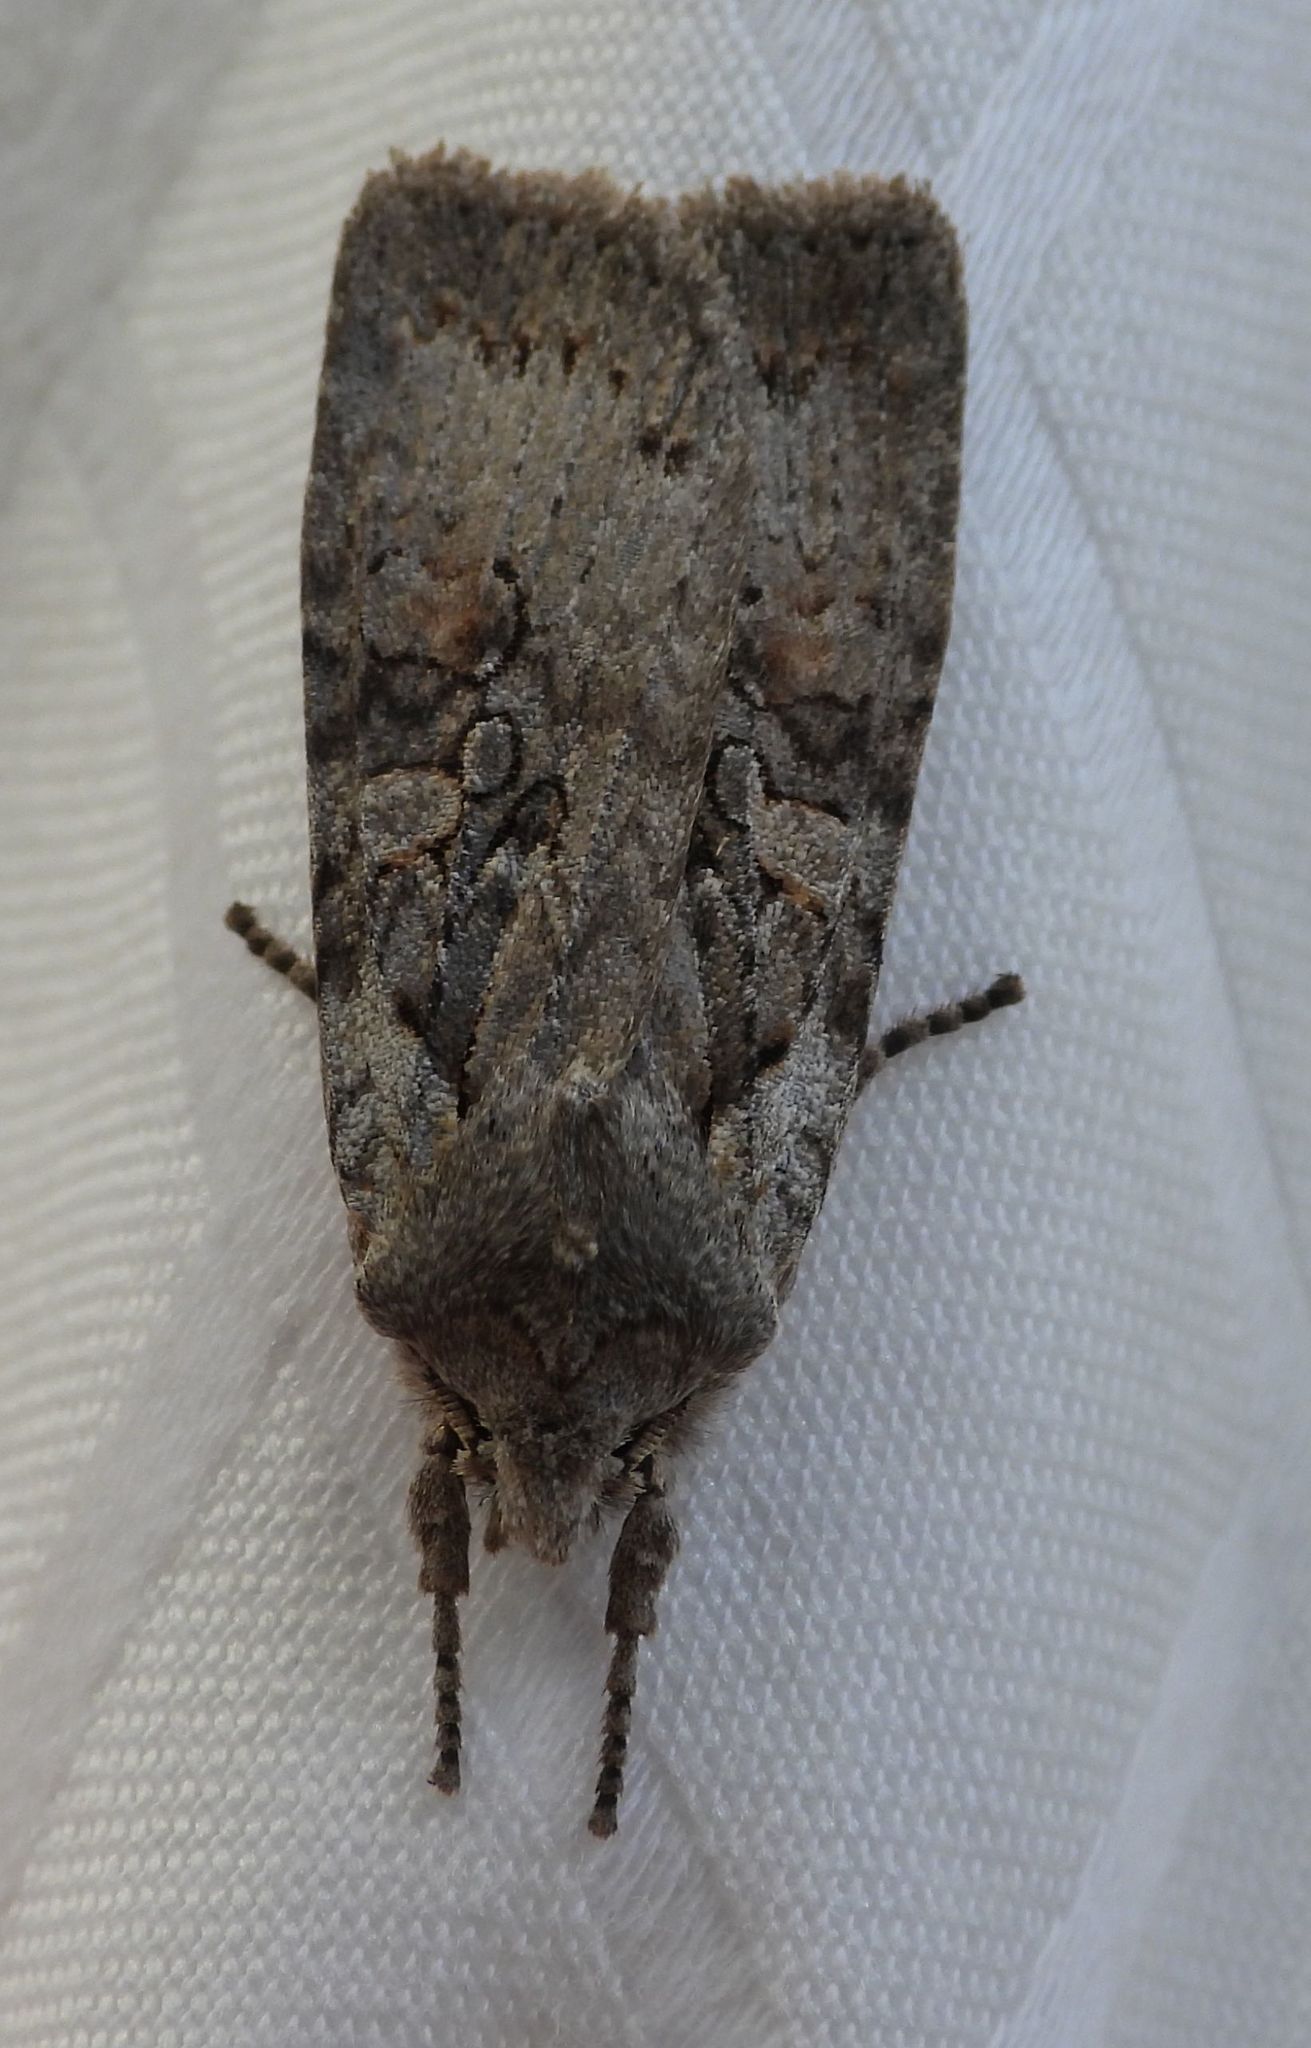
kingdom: Animalia
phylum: Arthropoda
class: Insecta
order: Lepidoptera
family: Noctuidae
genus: Lithophane
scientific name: Lithophane antennata
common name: Ashen pinion
